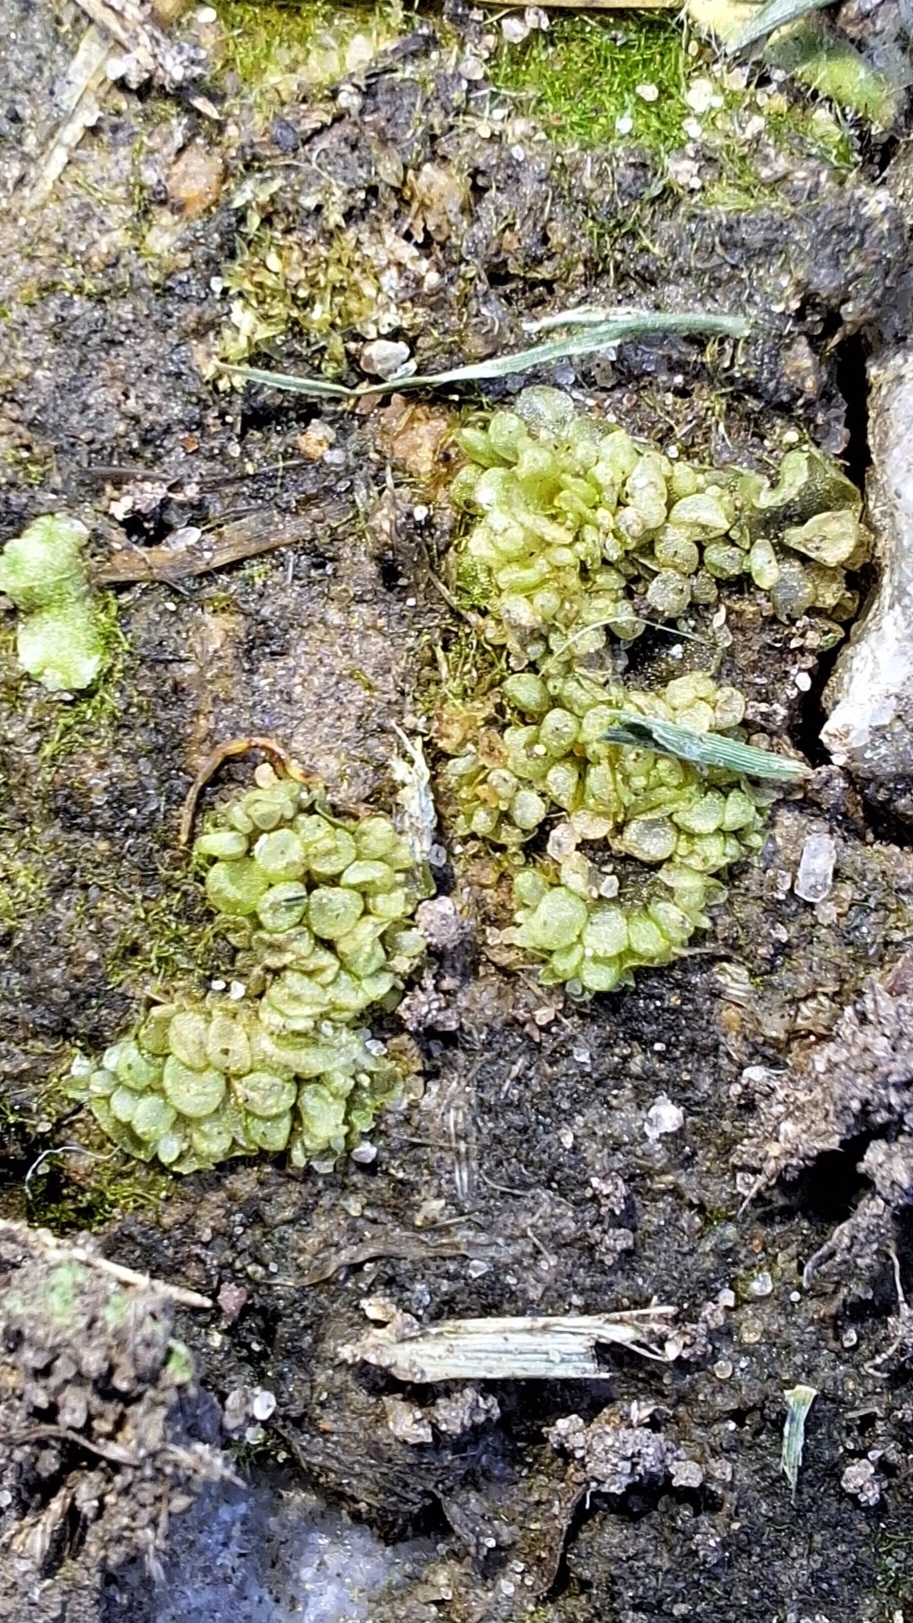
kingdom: Plantae
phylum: Marchantiophyta
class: Marchantiopsida
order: Sphaerocarpales
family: Sphaerocarpaceae
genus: Sphaerocarpos
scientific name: Sphaerocarpos texanus
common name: Texas balloonwort
